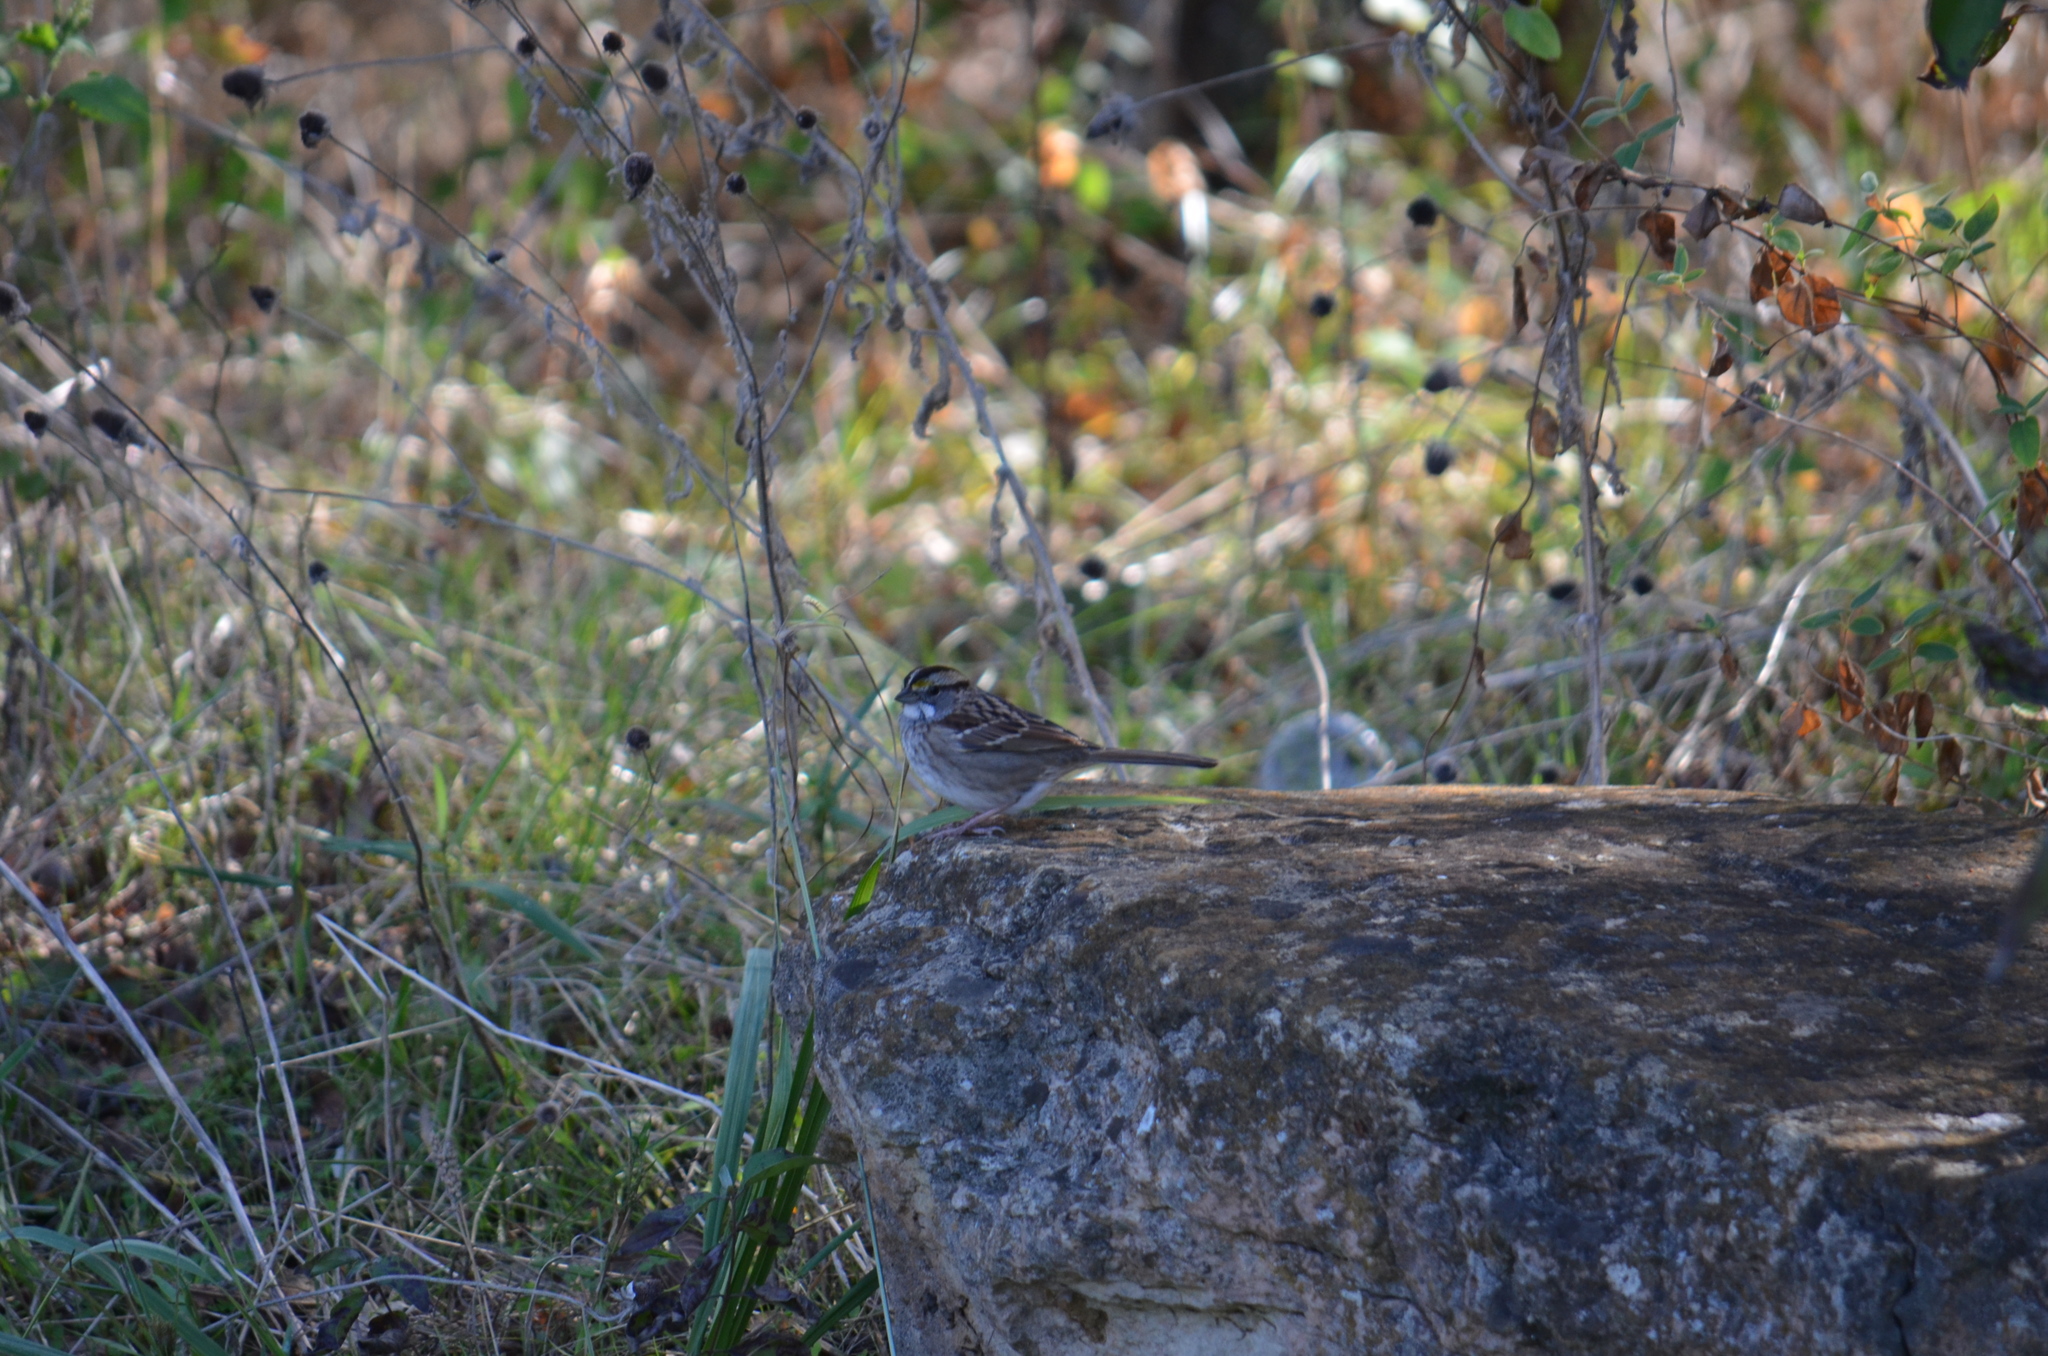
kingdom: Animalia
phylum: Chordata
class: Aves
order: Passeriformes
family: Passerellidae
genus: Zonotrichia
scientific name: Zonotrichia albicollis
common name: White-throated sparrow
